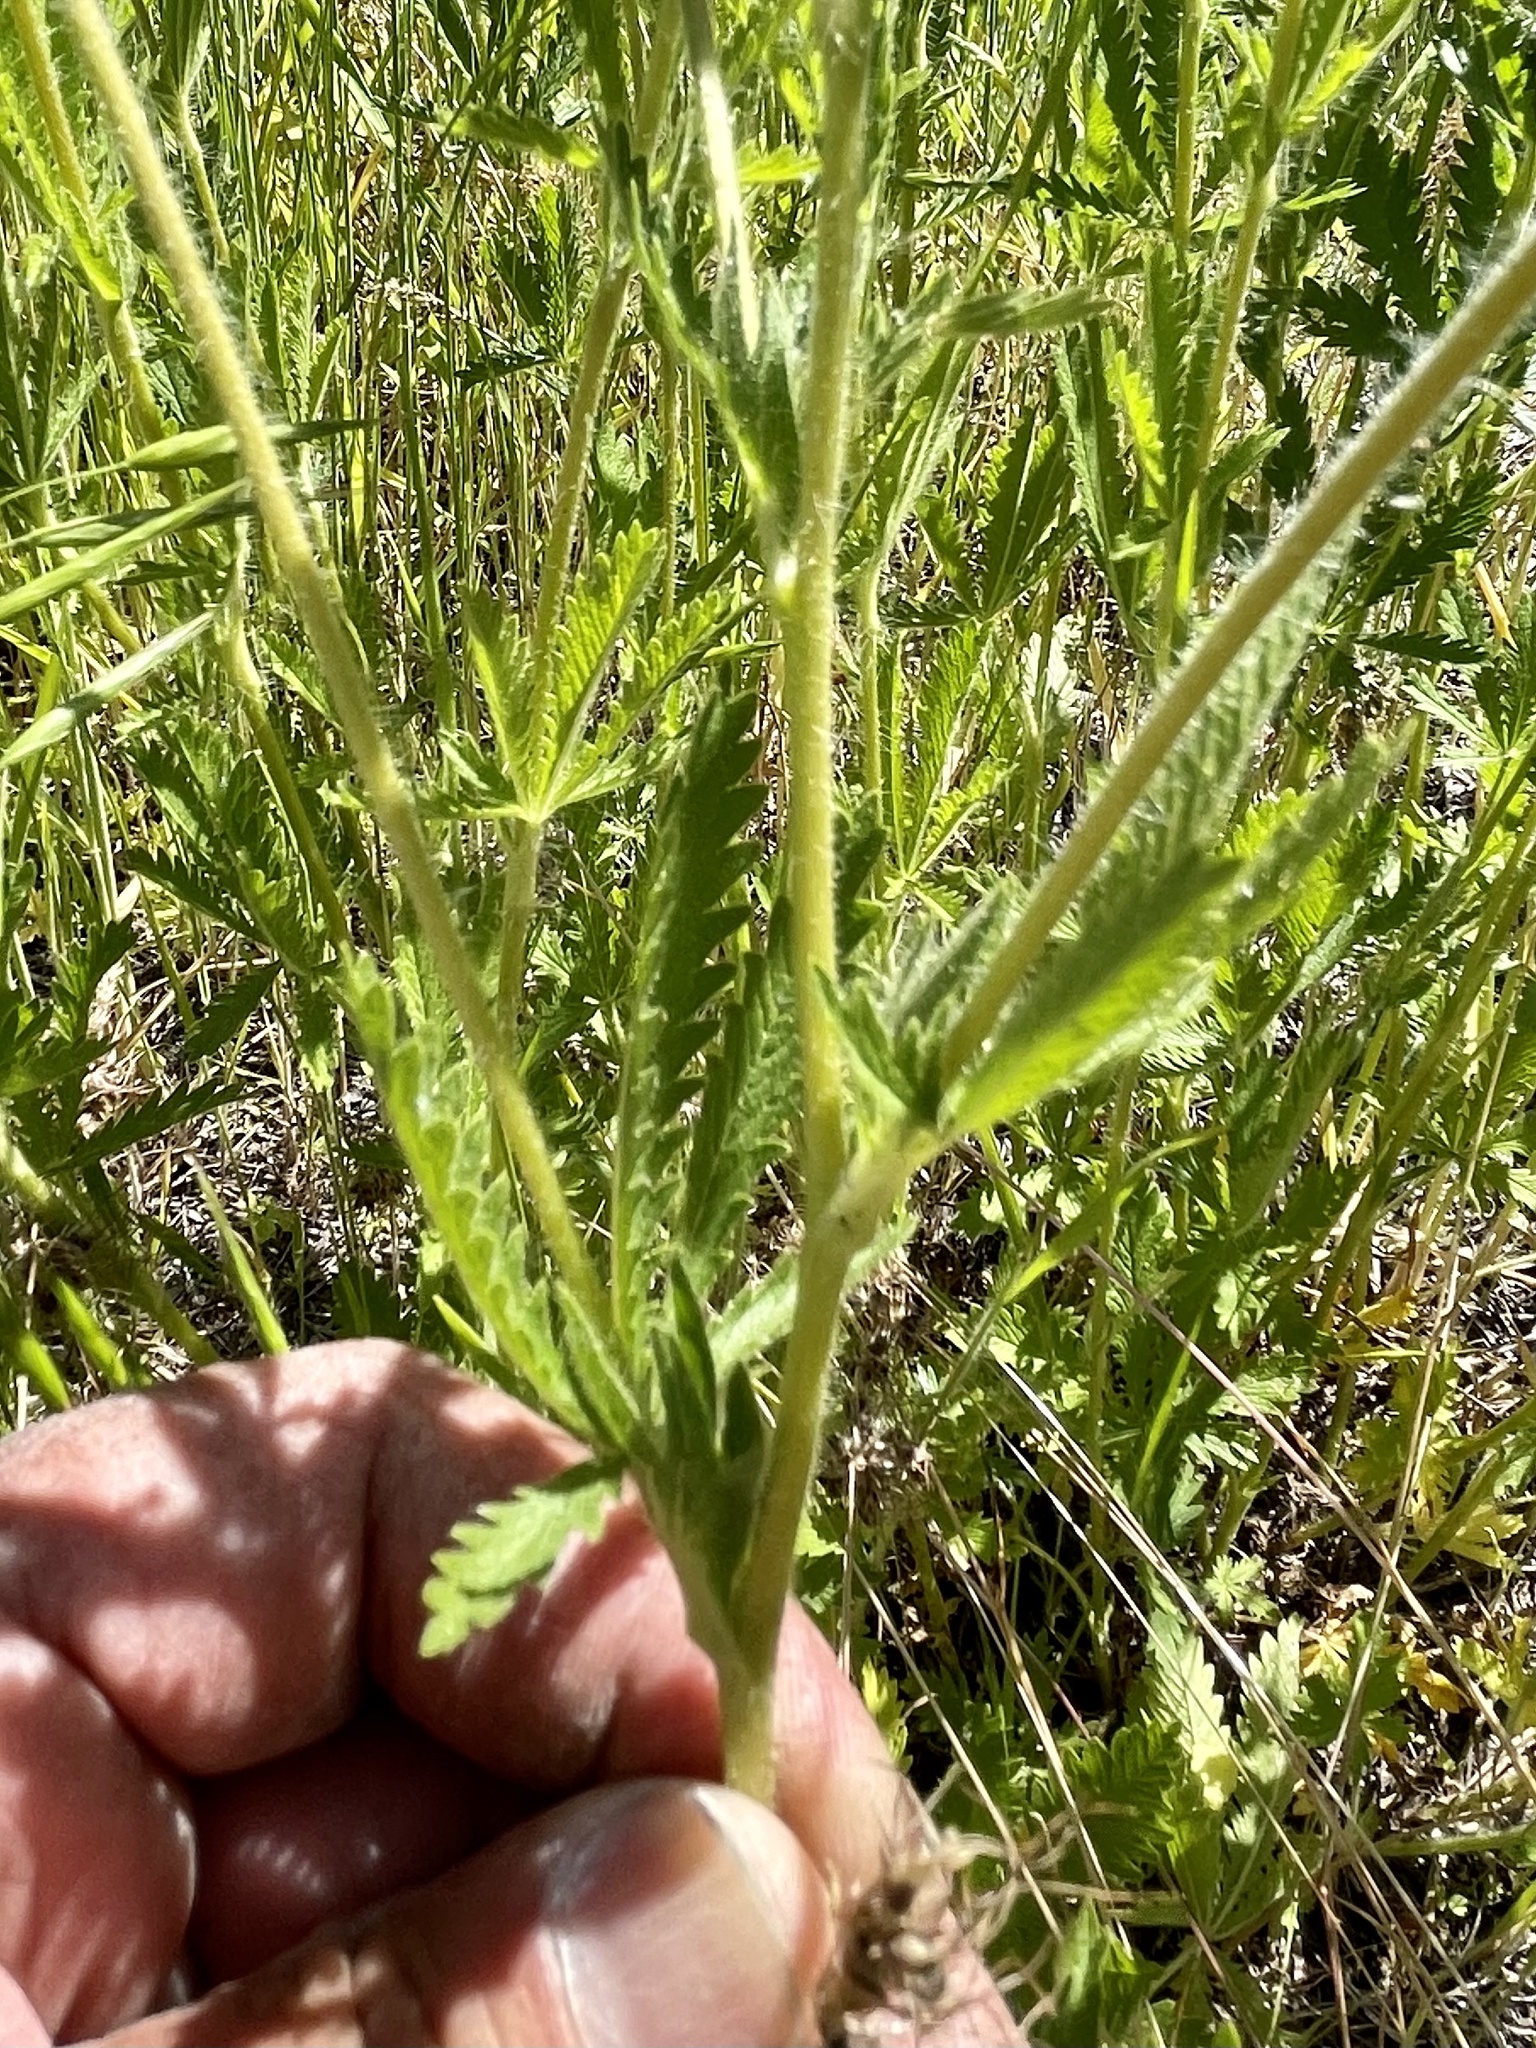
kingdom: Plantae
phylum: Tracheophyta
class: Magnoliopsida
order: Rosales
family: Rosaceae
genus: Potentilla
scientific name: Potentilla recta
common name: Sulphur cinquefoil
